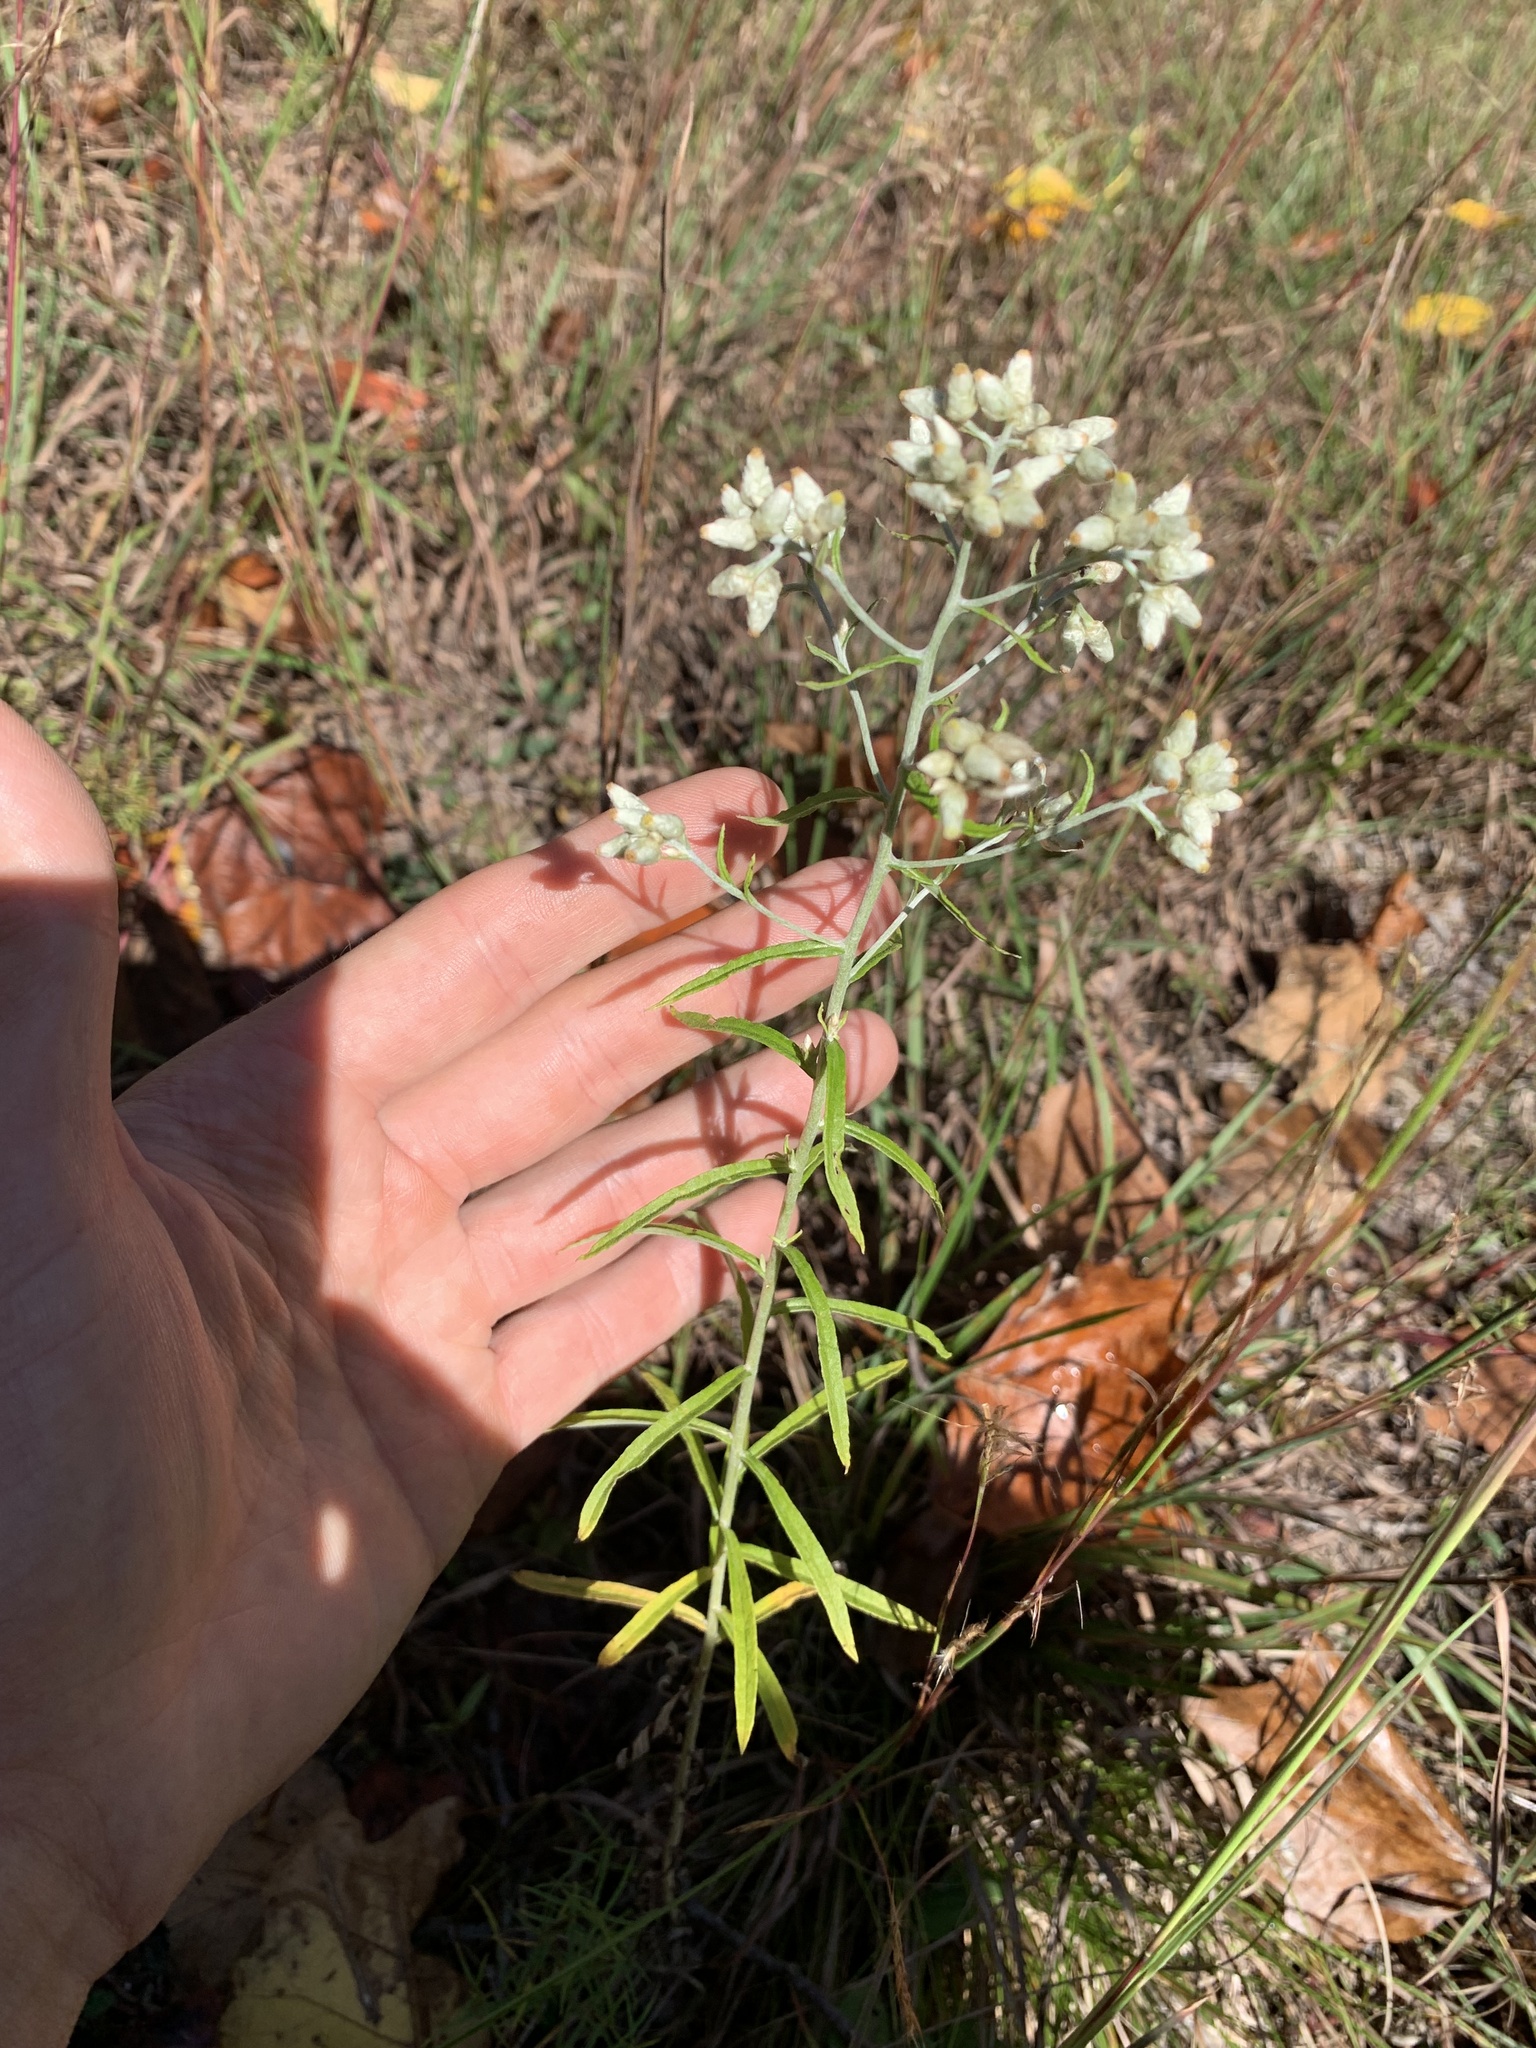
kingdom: Plantae
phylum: Tracheophyta
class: Magnoliopsida
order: Asterales
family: Asteraceae
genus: Pseudognaphalium
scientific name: Pseudognaphalium obtusifolium
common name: Eastern rabbit-tobacco
